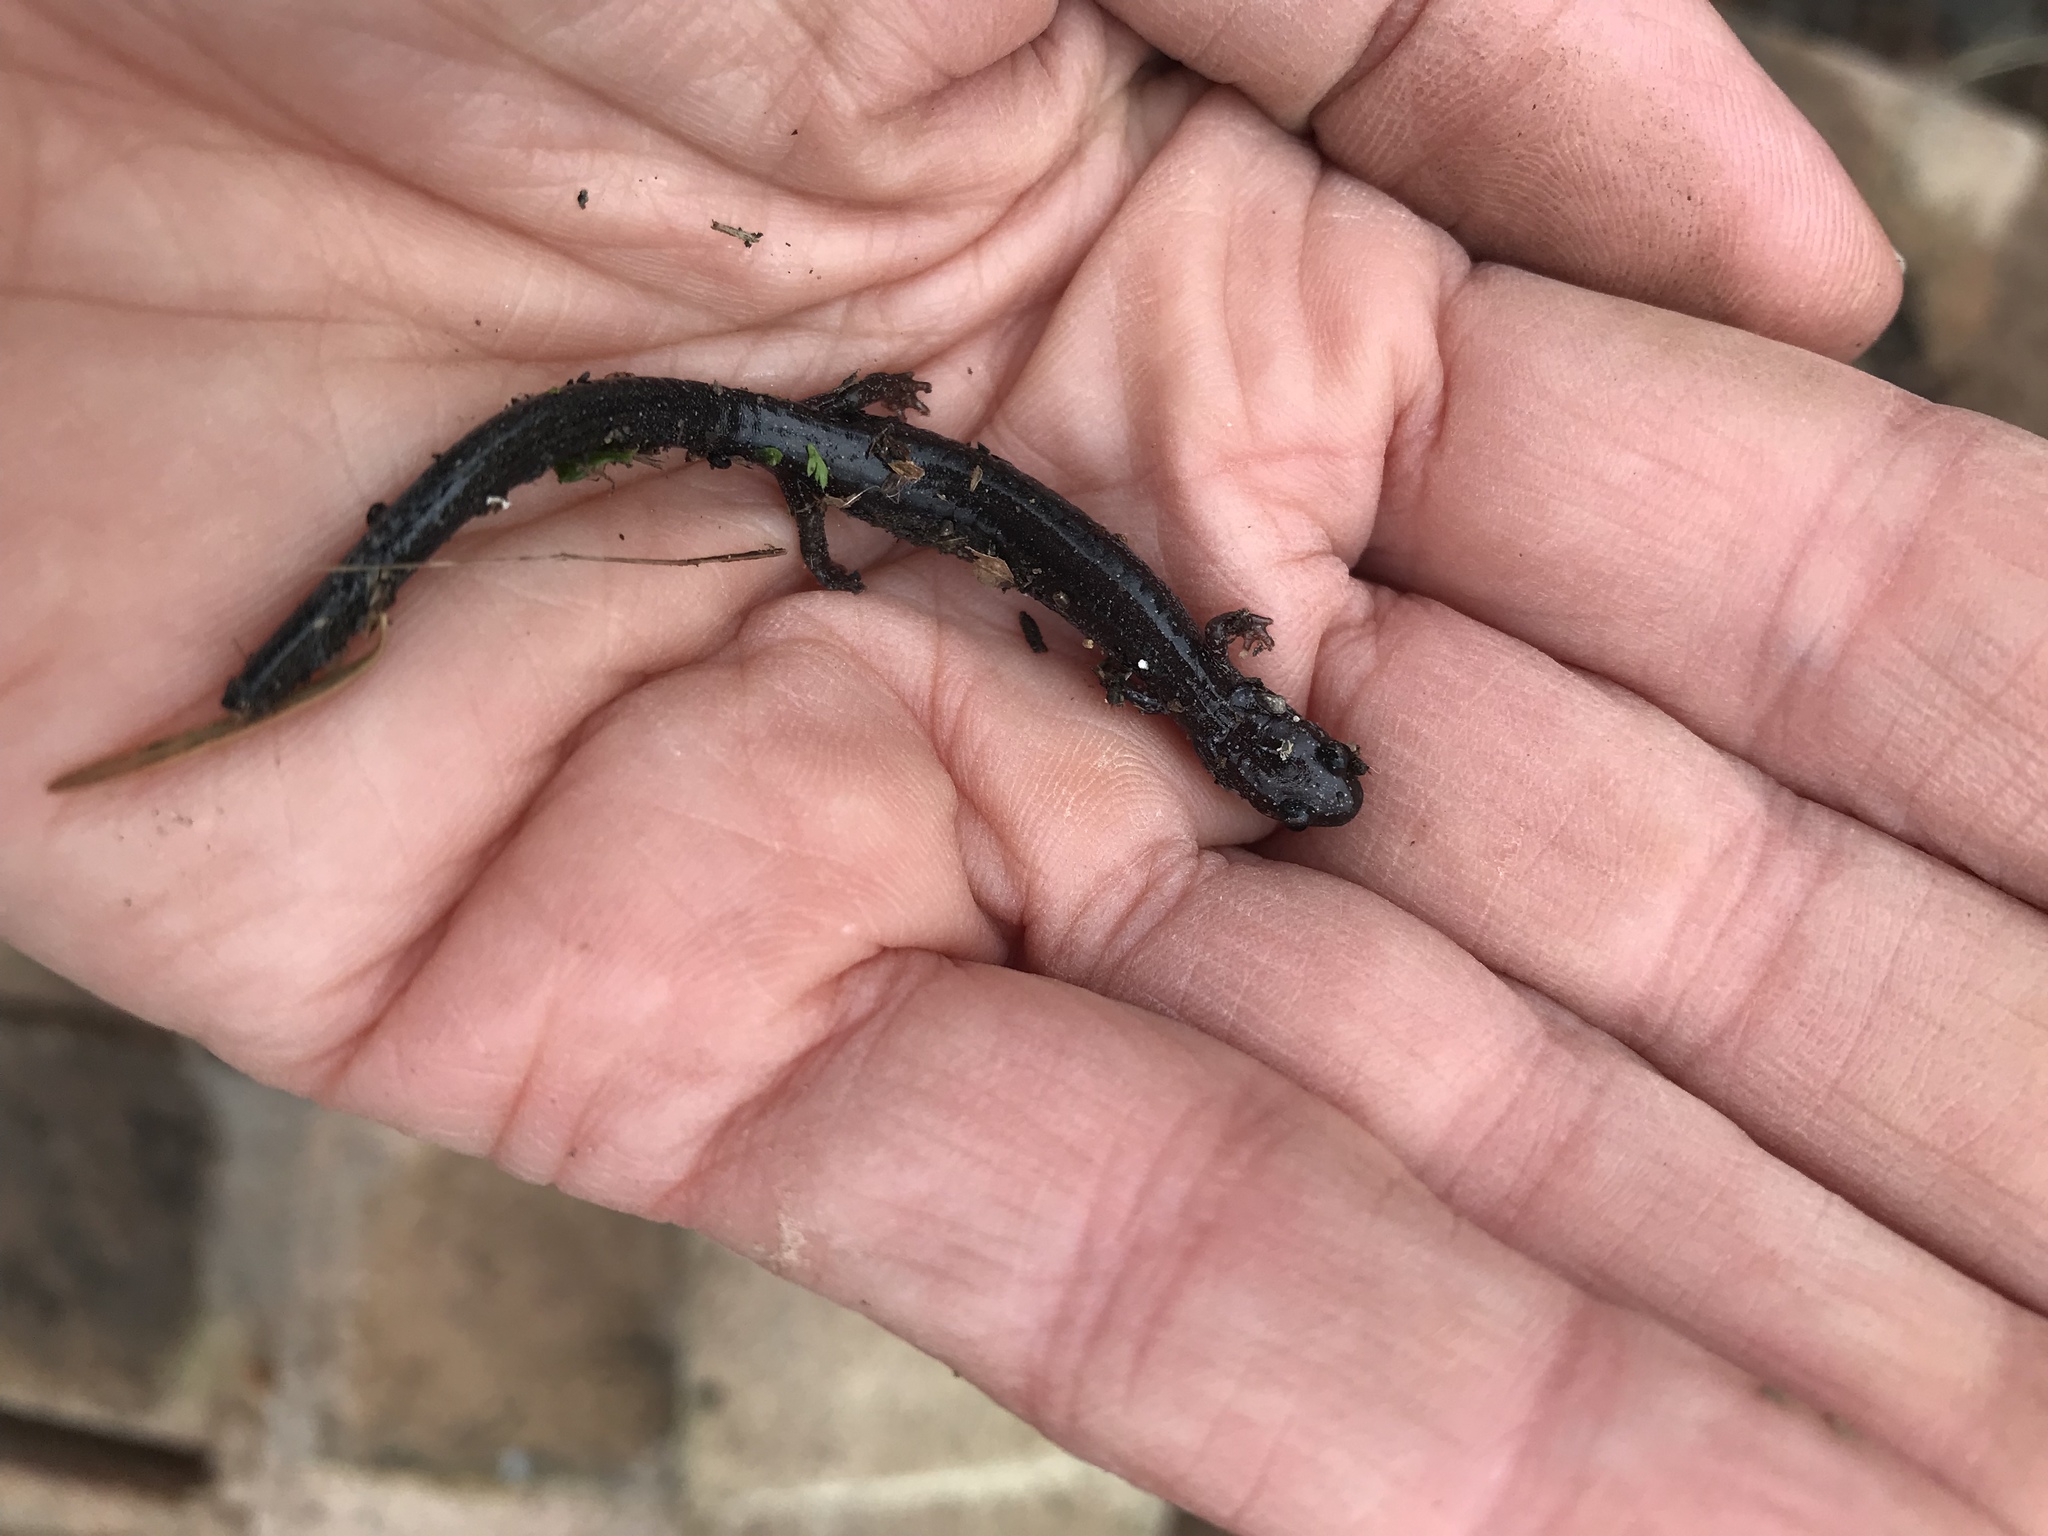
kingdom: Animalia
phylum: Chordata
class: Amphibia
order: Caudata
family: Plethodontidae
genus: Plethodon
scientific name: Plethodon cinereus
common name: Redback salamander
